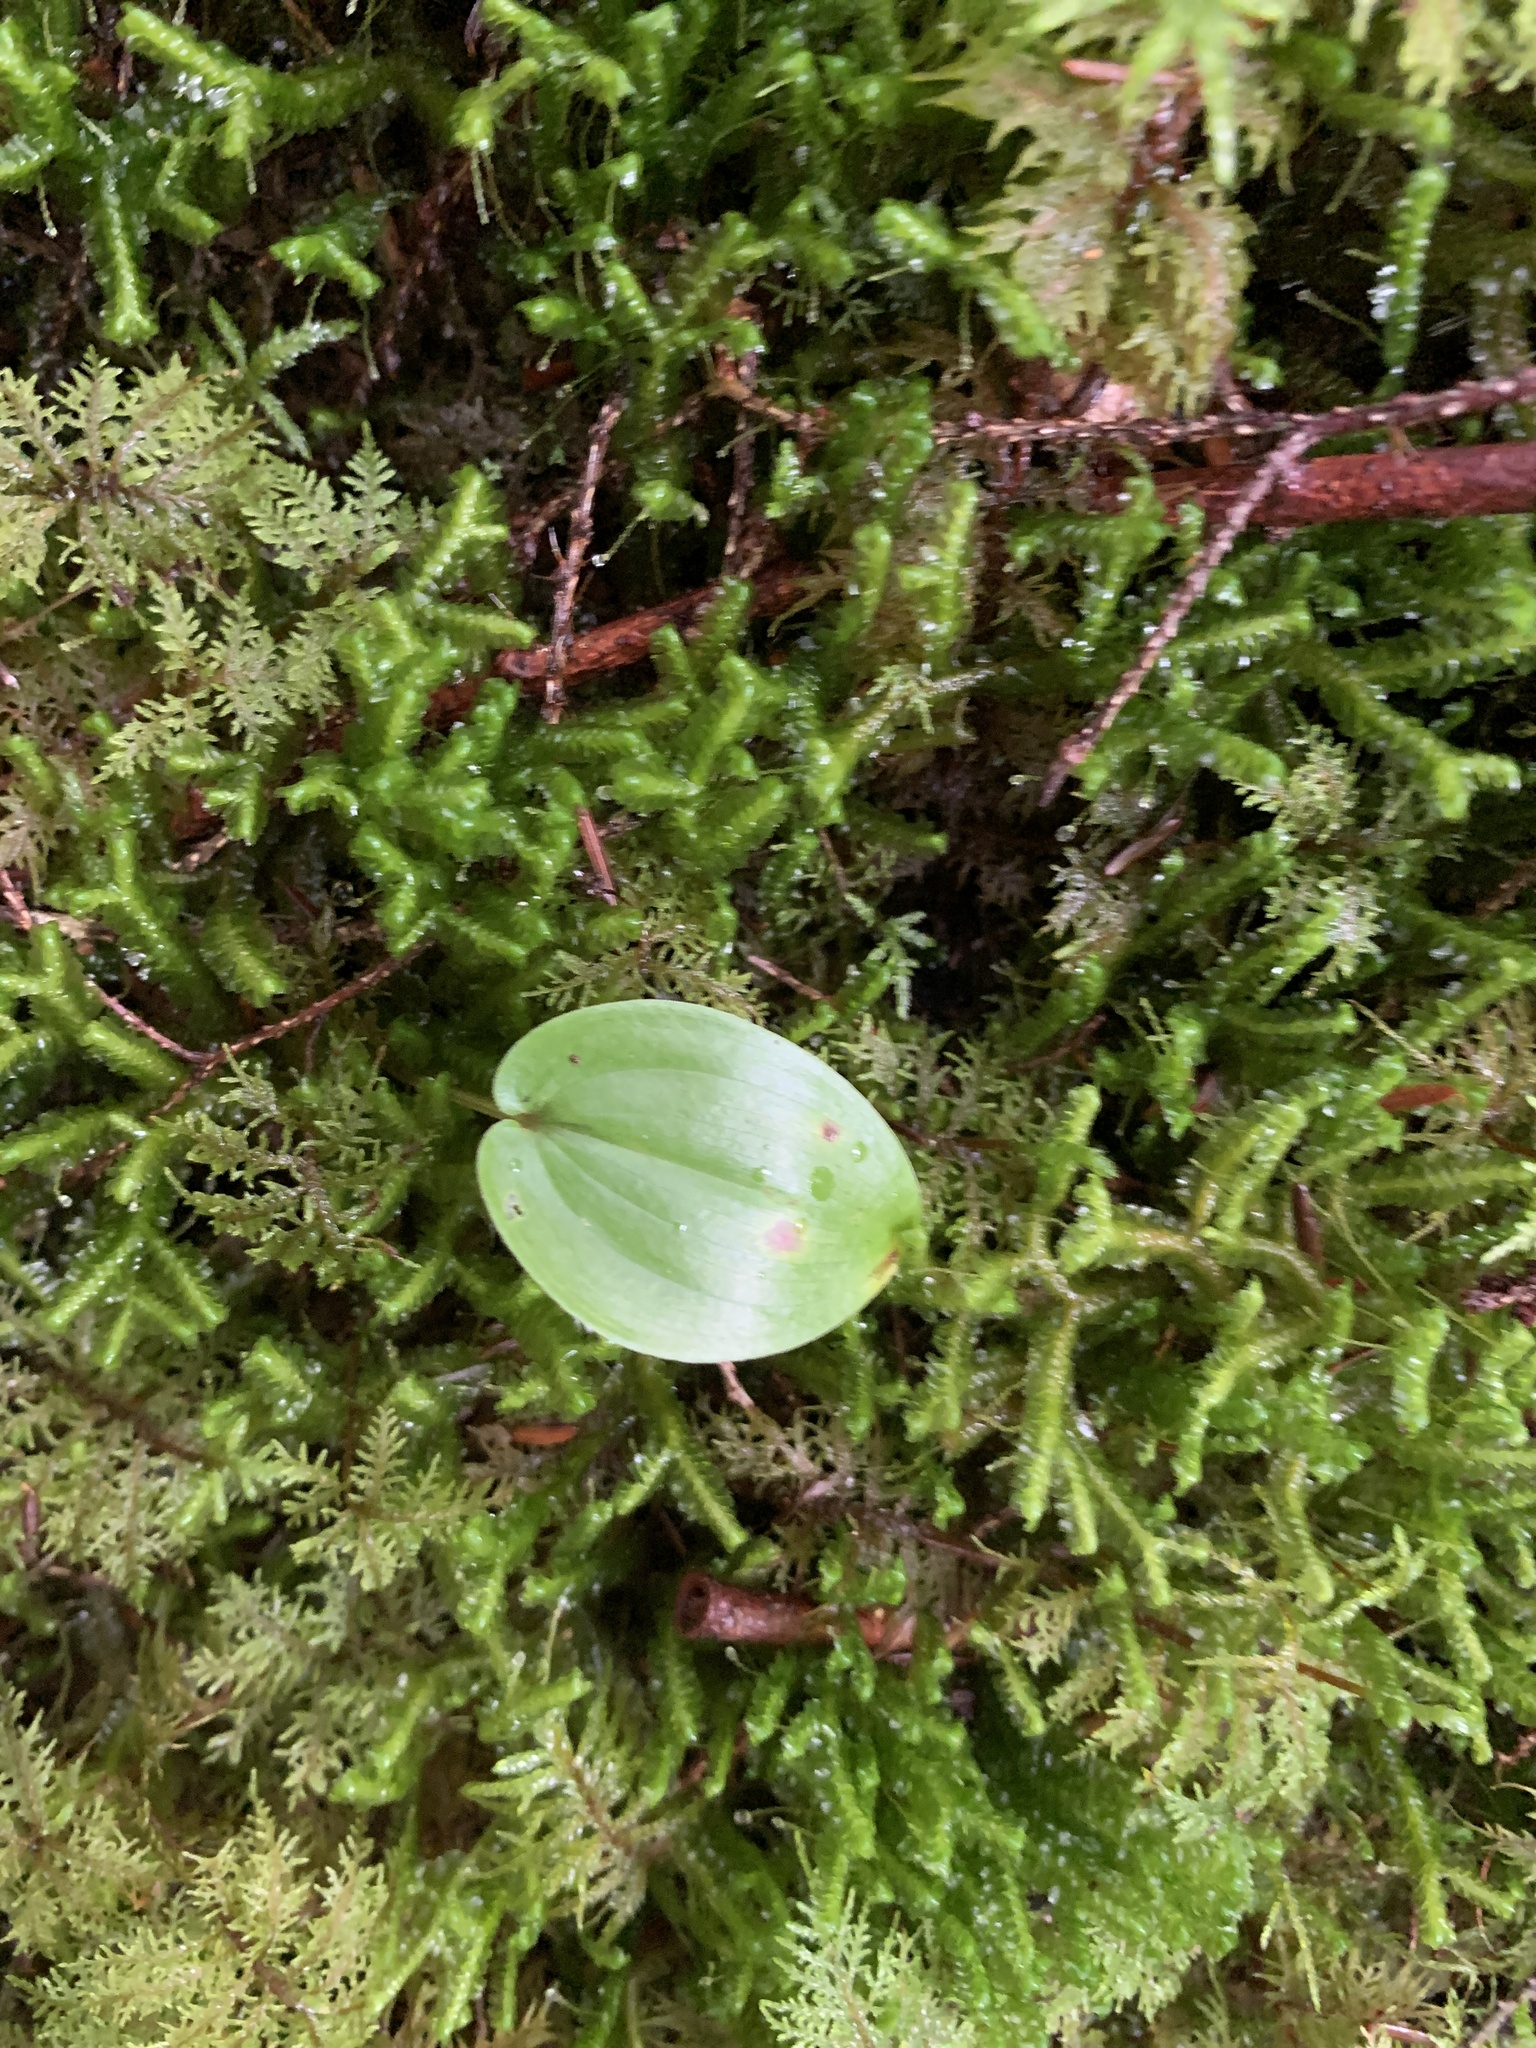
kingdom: Plantae
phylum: Tracheophyta
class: Liliopsida
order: Asparagales
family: Asparagaceae
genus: Maianthemum
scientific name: Maianthemum canadense
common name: False lily-of-the-valley
